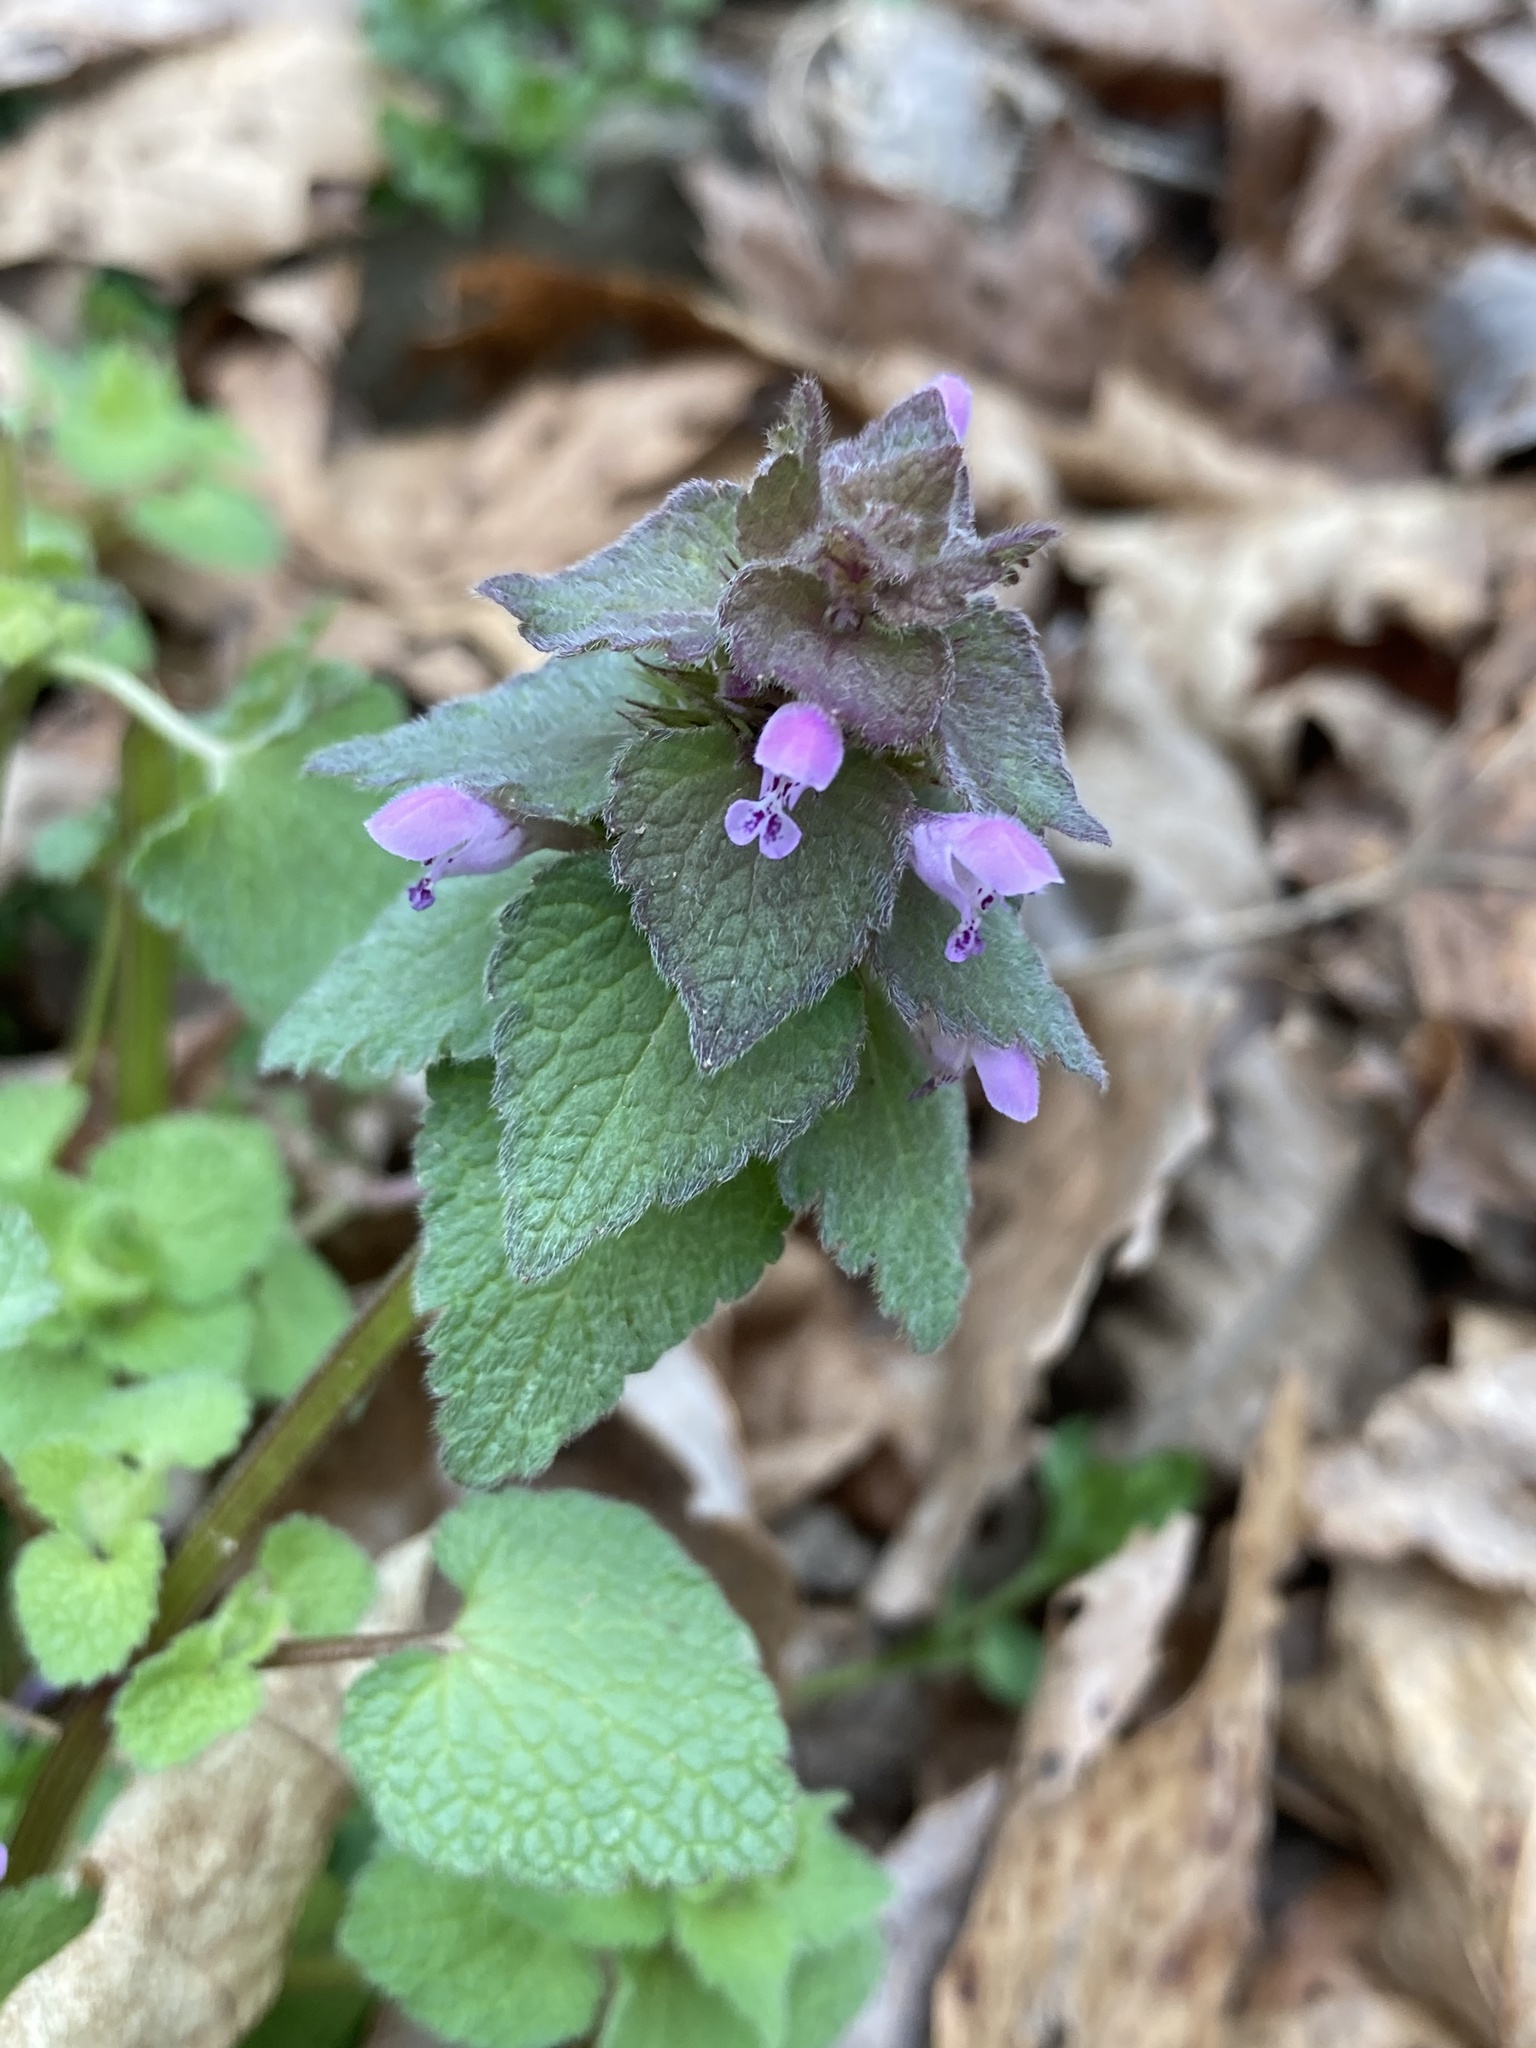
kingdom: Plantae
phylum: Tracheophyta
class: Magnoliopsida
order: Lamiales
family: Lamiaceae
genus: Lamium
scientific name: Lamium purpureum
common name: Red dead-nettle
